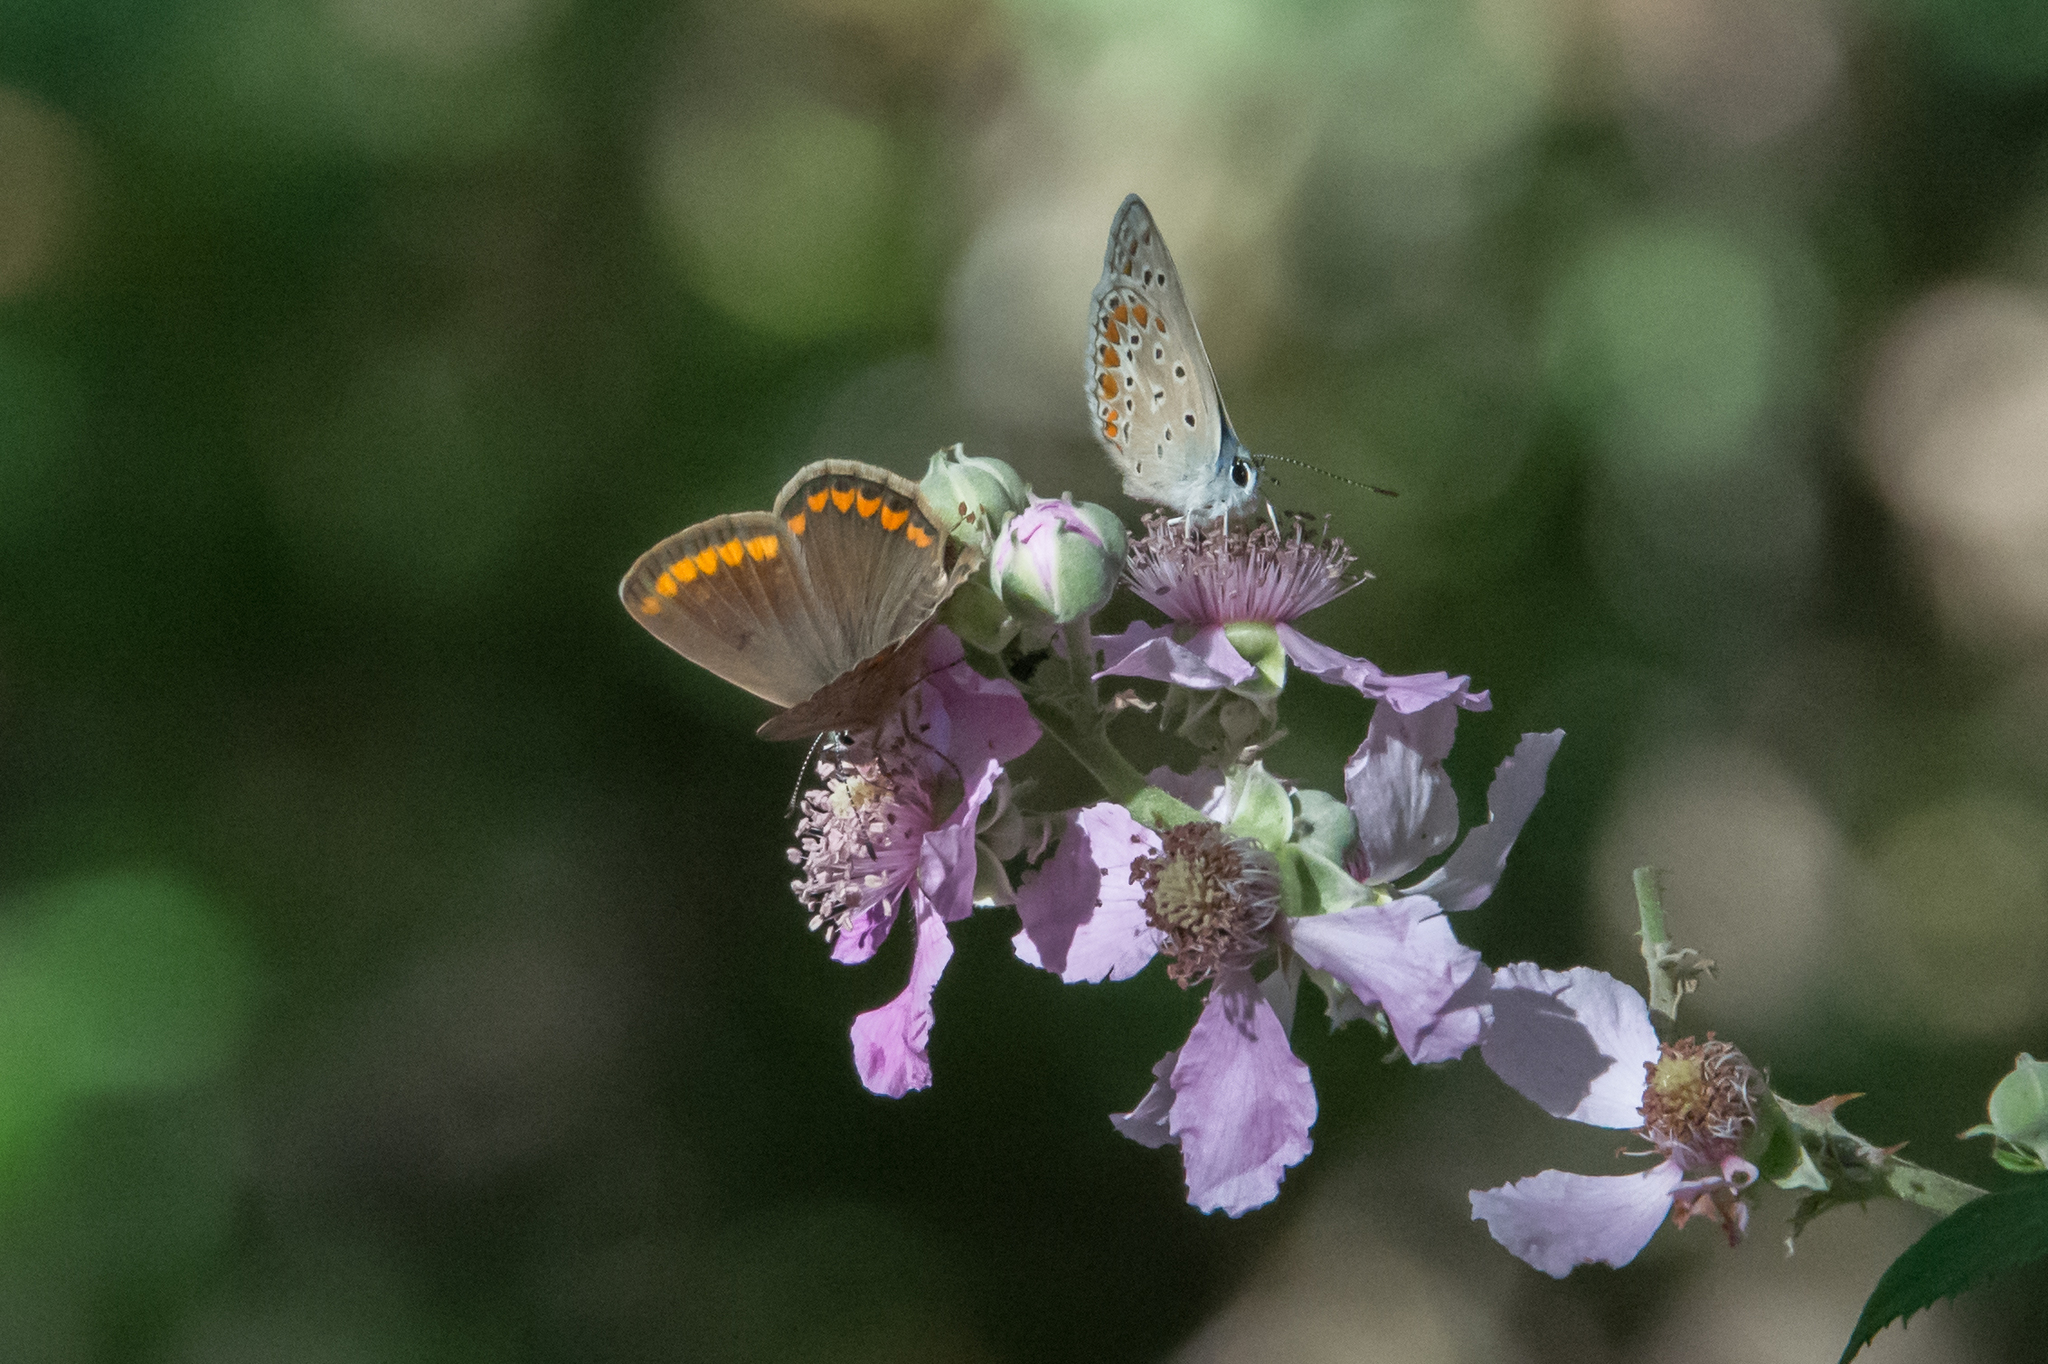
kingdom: Animalia
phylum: Arthropoda
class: Insecta
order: Lepidoptera
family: Lycaenidae
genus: Polyommatus
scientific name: Polyommatus celina
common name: Austaut's blue
